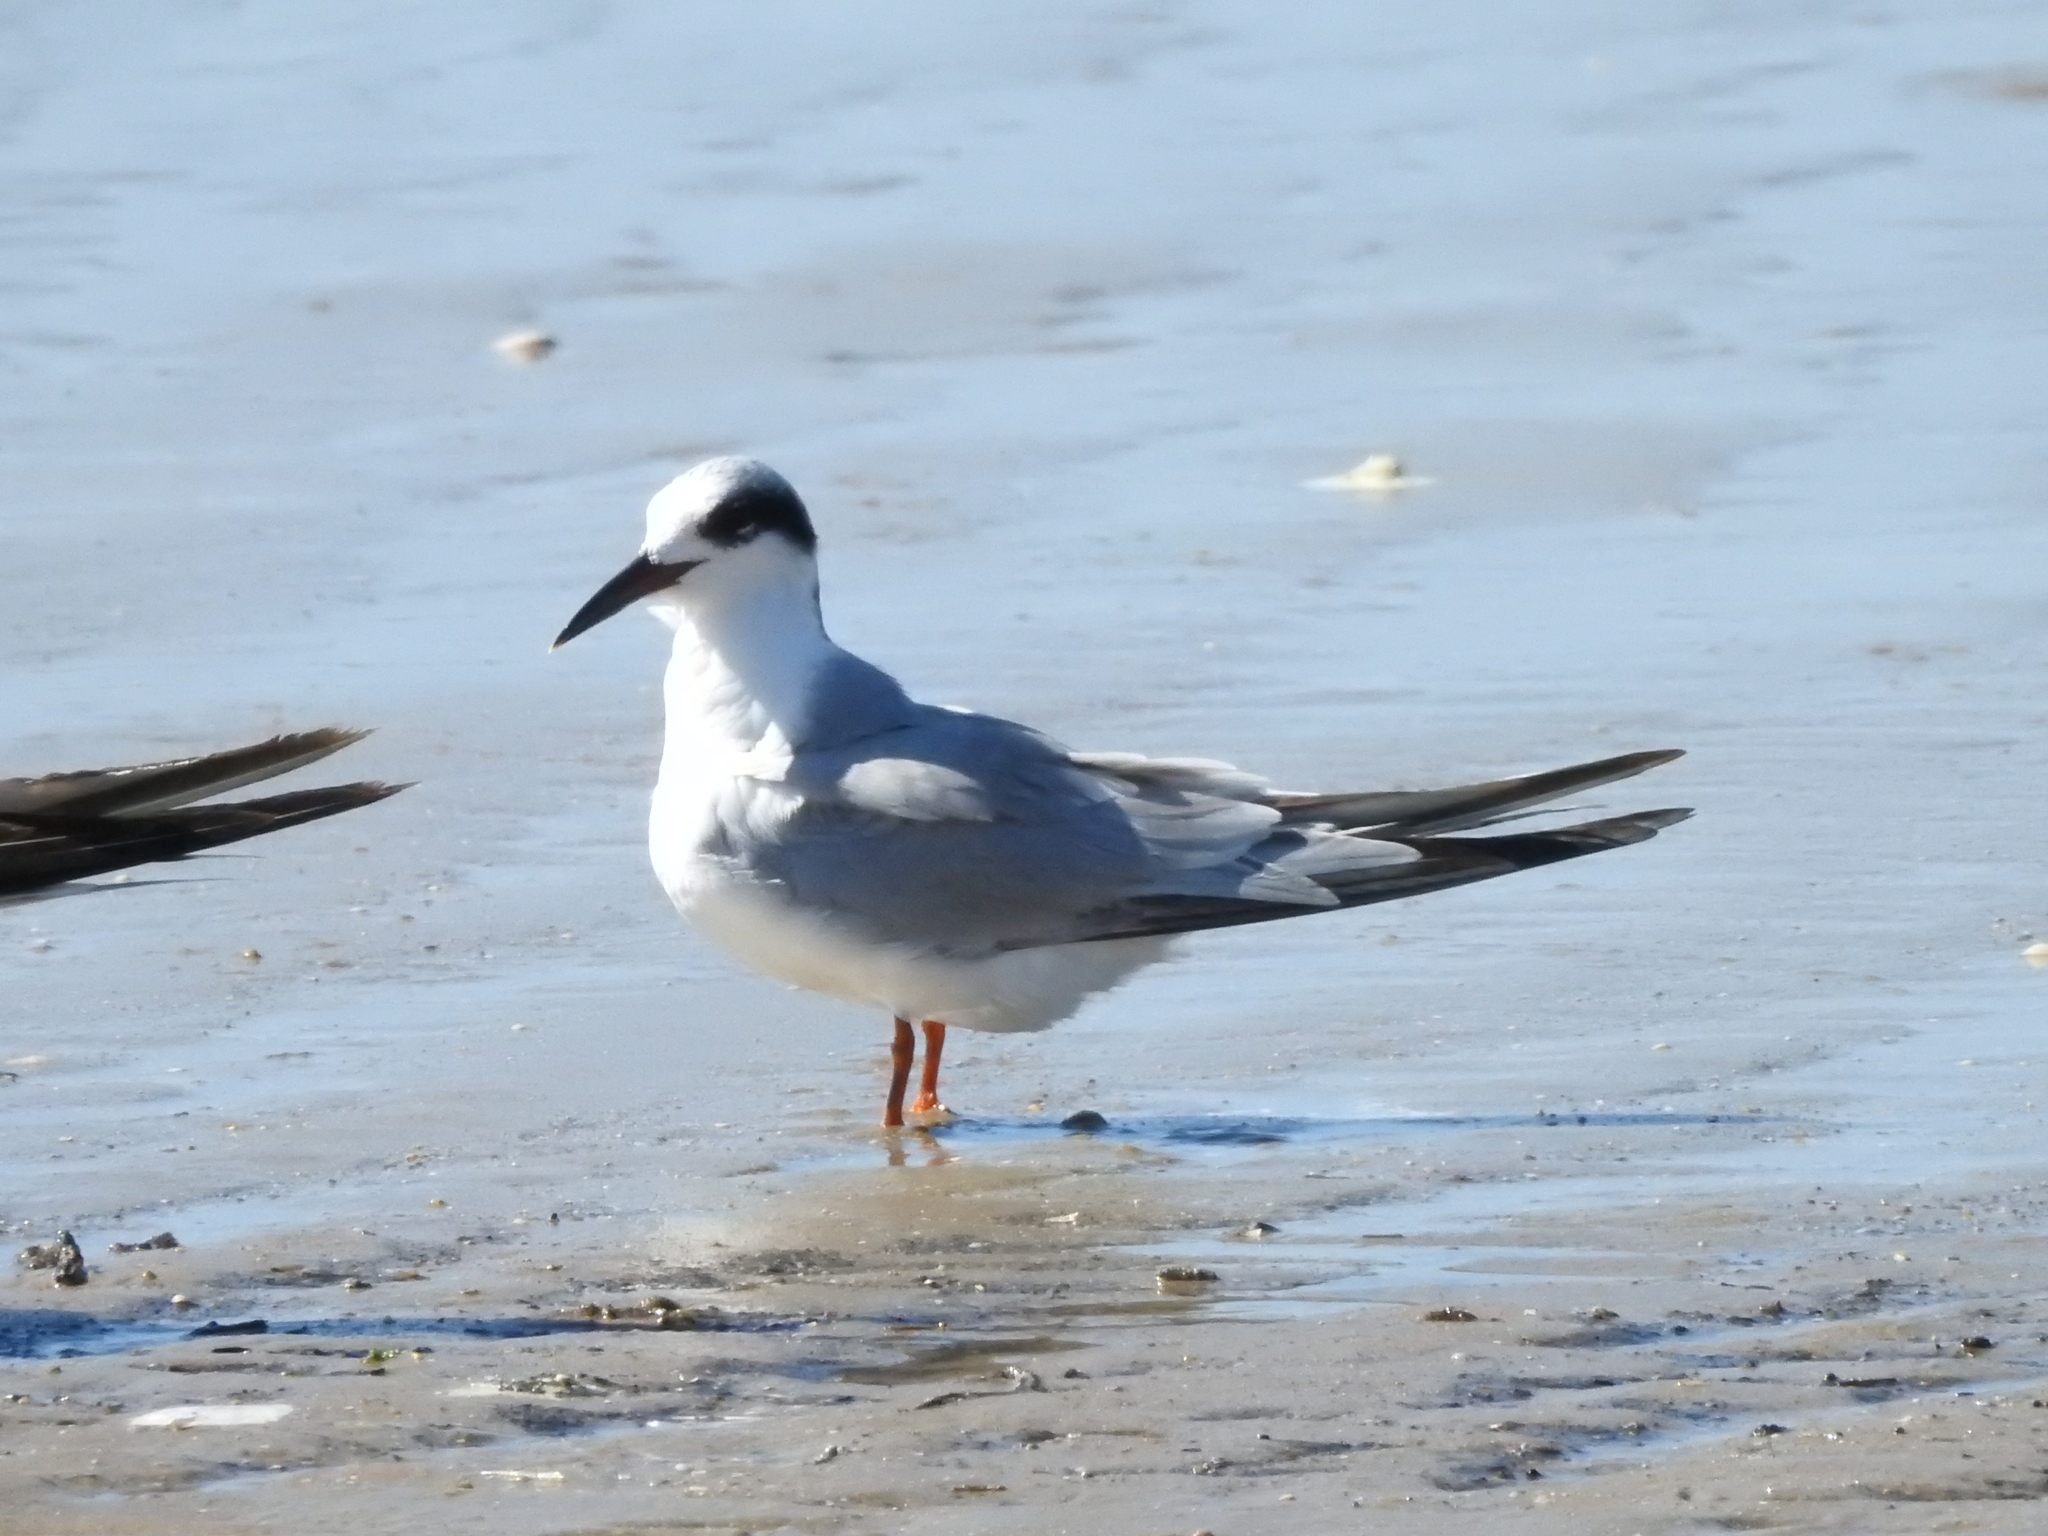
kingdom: Animalia
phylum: Chordata
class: Aves
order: Charadriiformes
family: Laridae
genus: Sterna
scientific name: Sterna forsteri
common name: Forster's tern
